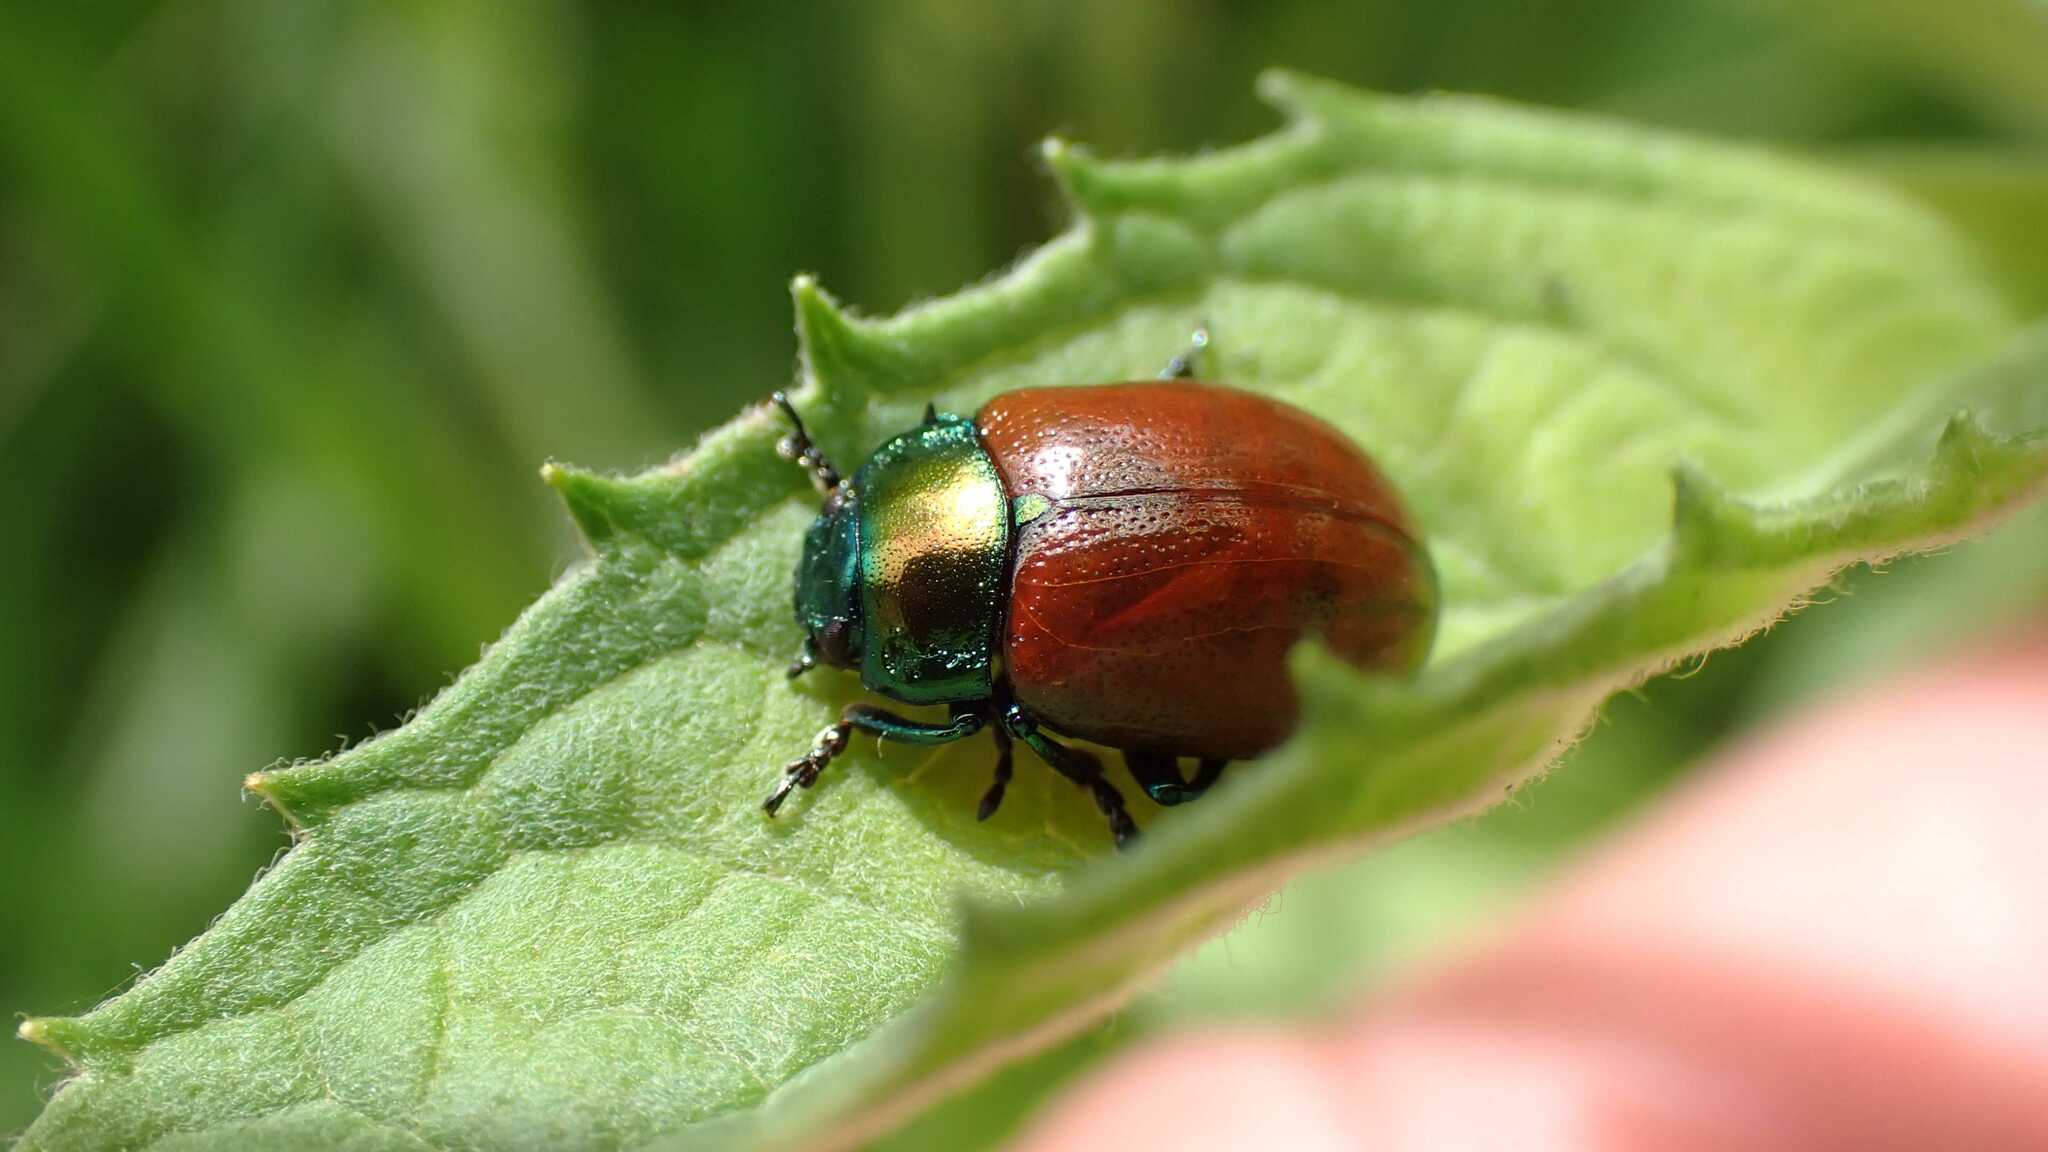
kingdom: Animalia
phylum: Arthropoda
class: Insecta
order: Coleoptera
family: Chrysomelidae
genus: Chrysomela
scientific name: Chrysomela polita
